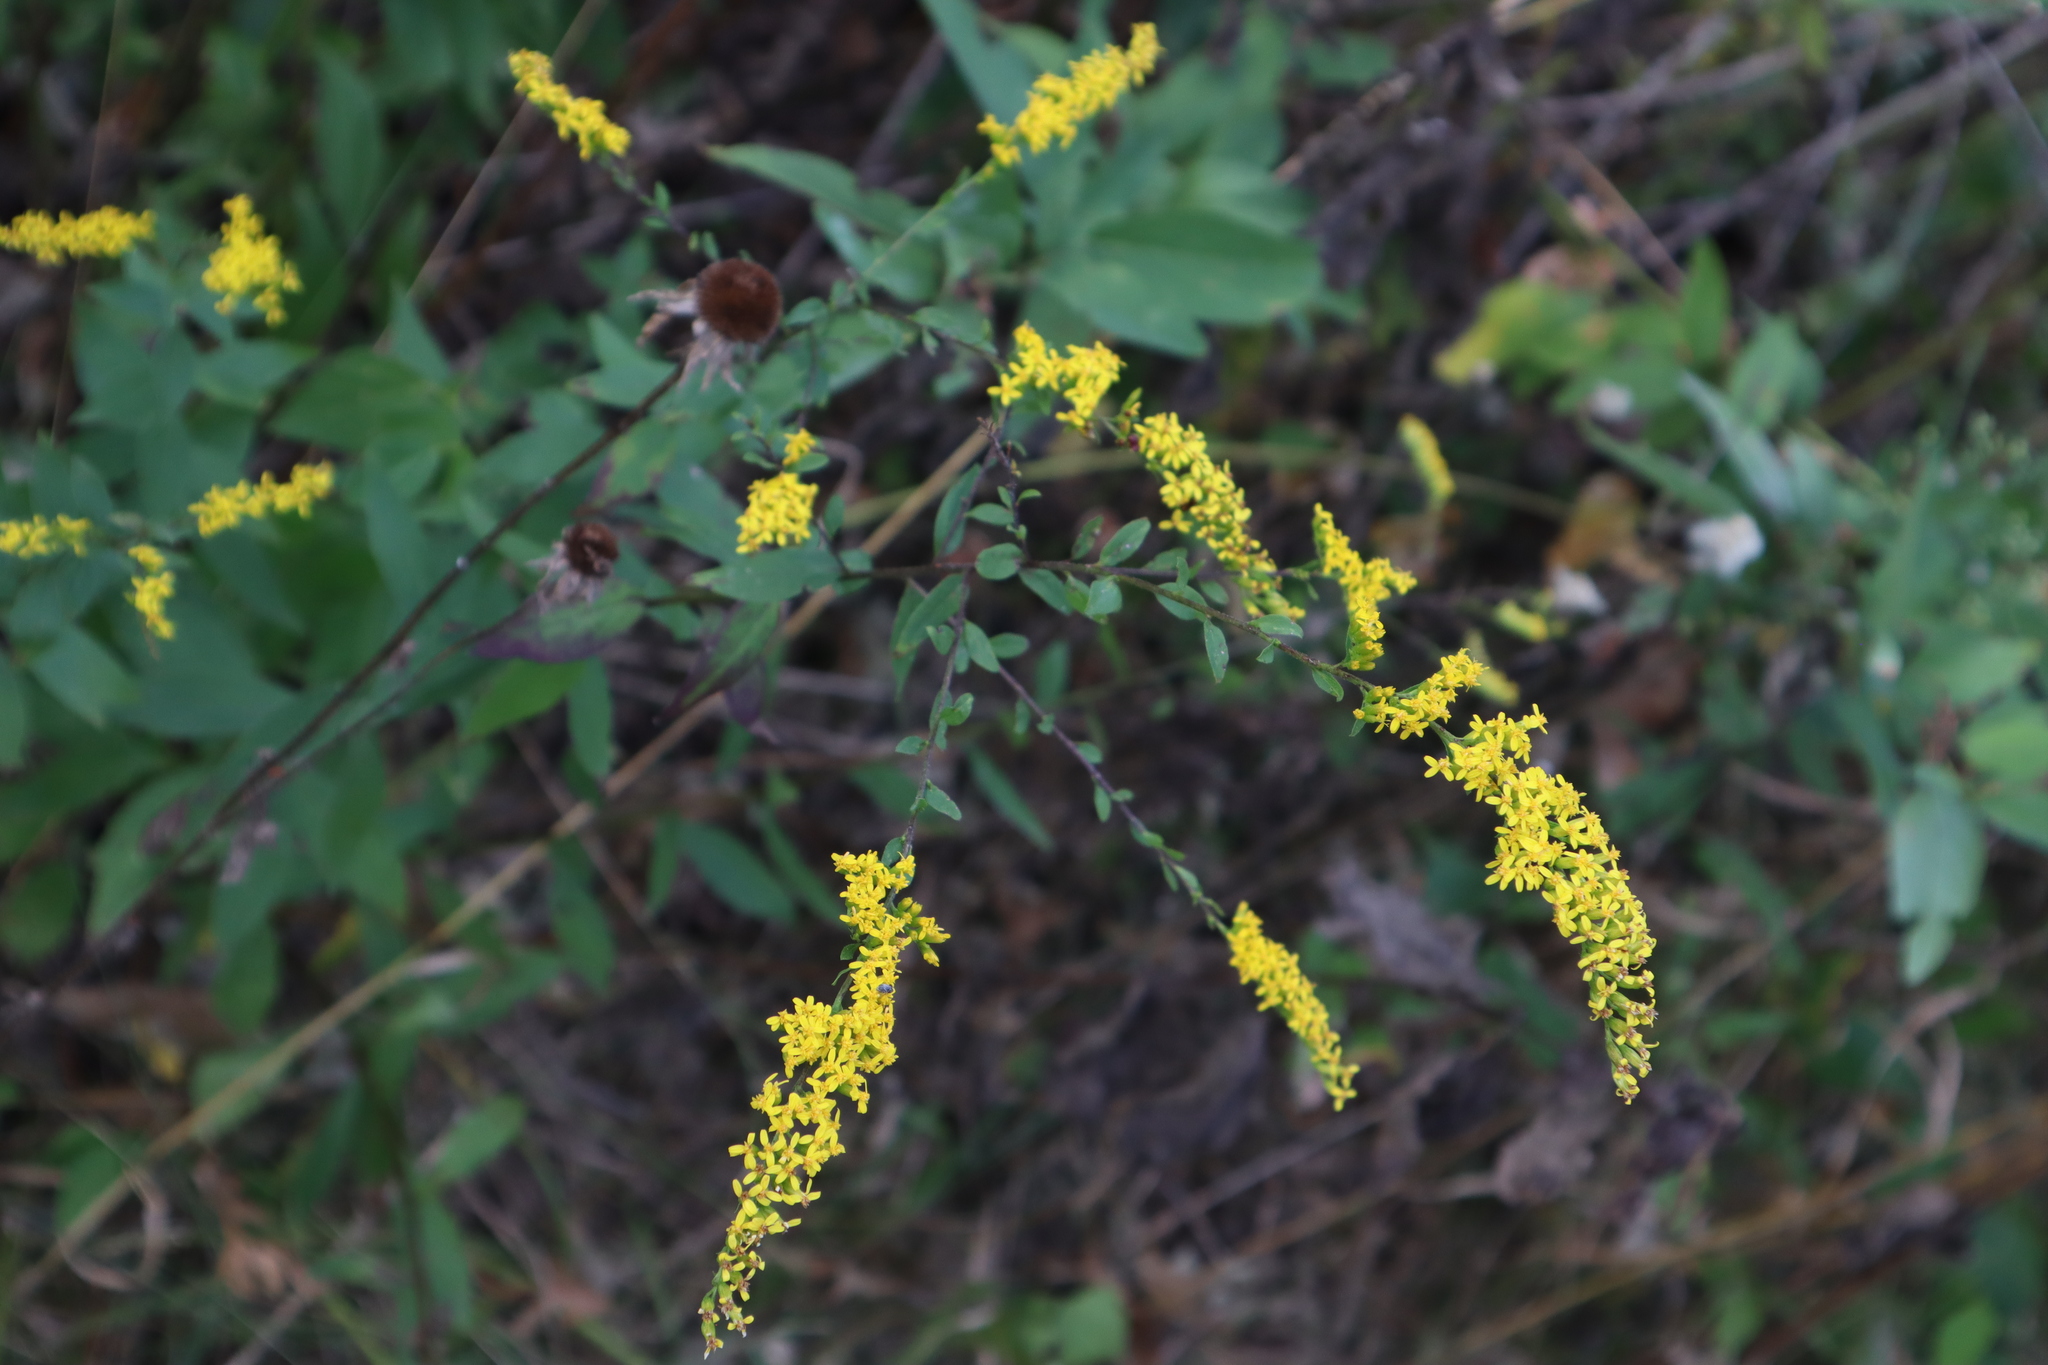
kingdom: Plantae
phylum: Tracheophyta
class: Magnoliopsida
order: Asterales
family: Asteraceae
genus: Solidago
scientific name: Solidago ulmifolia
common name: Elm-leaf goldenrod
